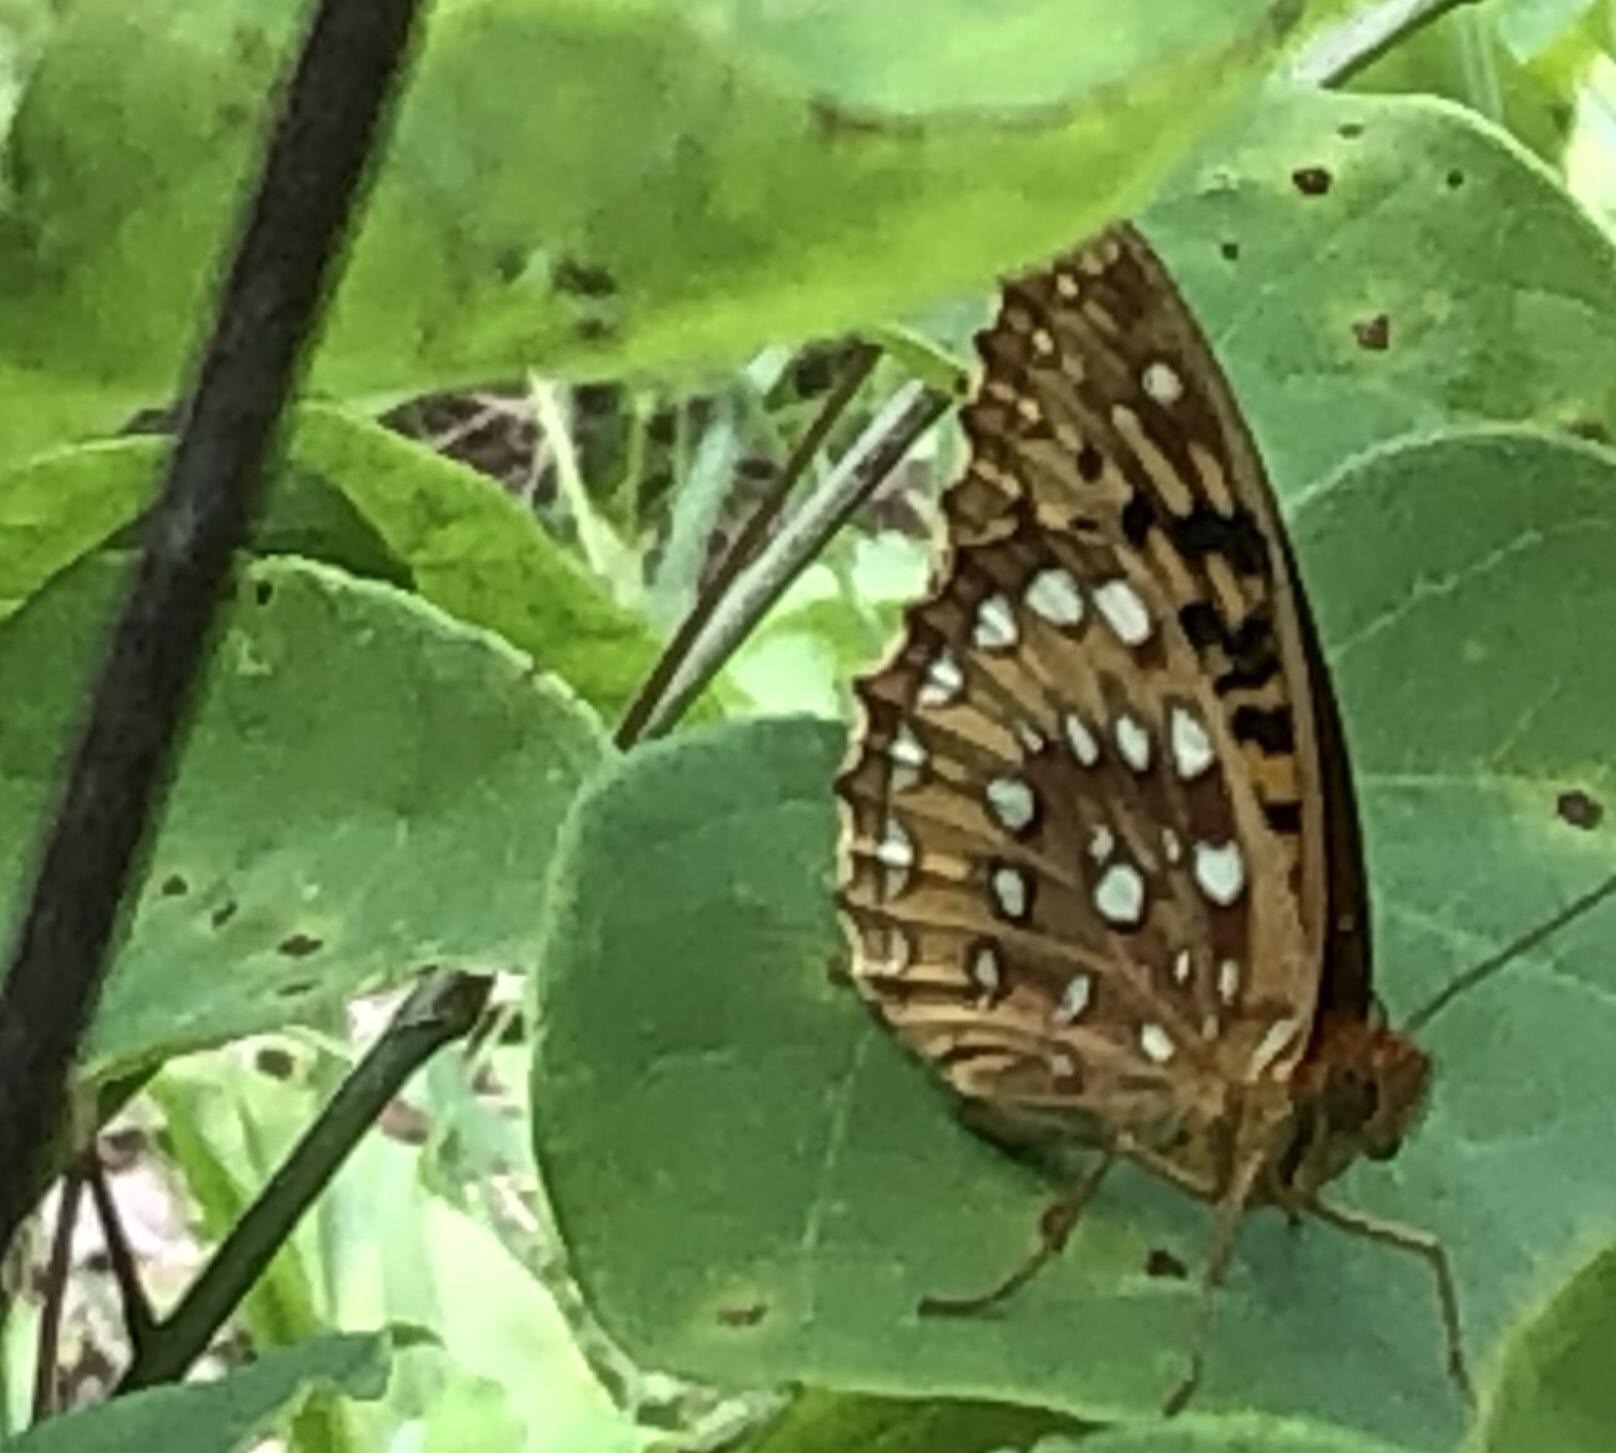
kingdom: Animalia
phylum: Arthropoda
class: Insecta
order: Lepidoptera
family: Nymphalidae
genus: Speyeria
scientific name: Speyeria cybele
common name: Great spangled fritillary
